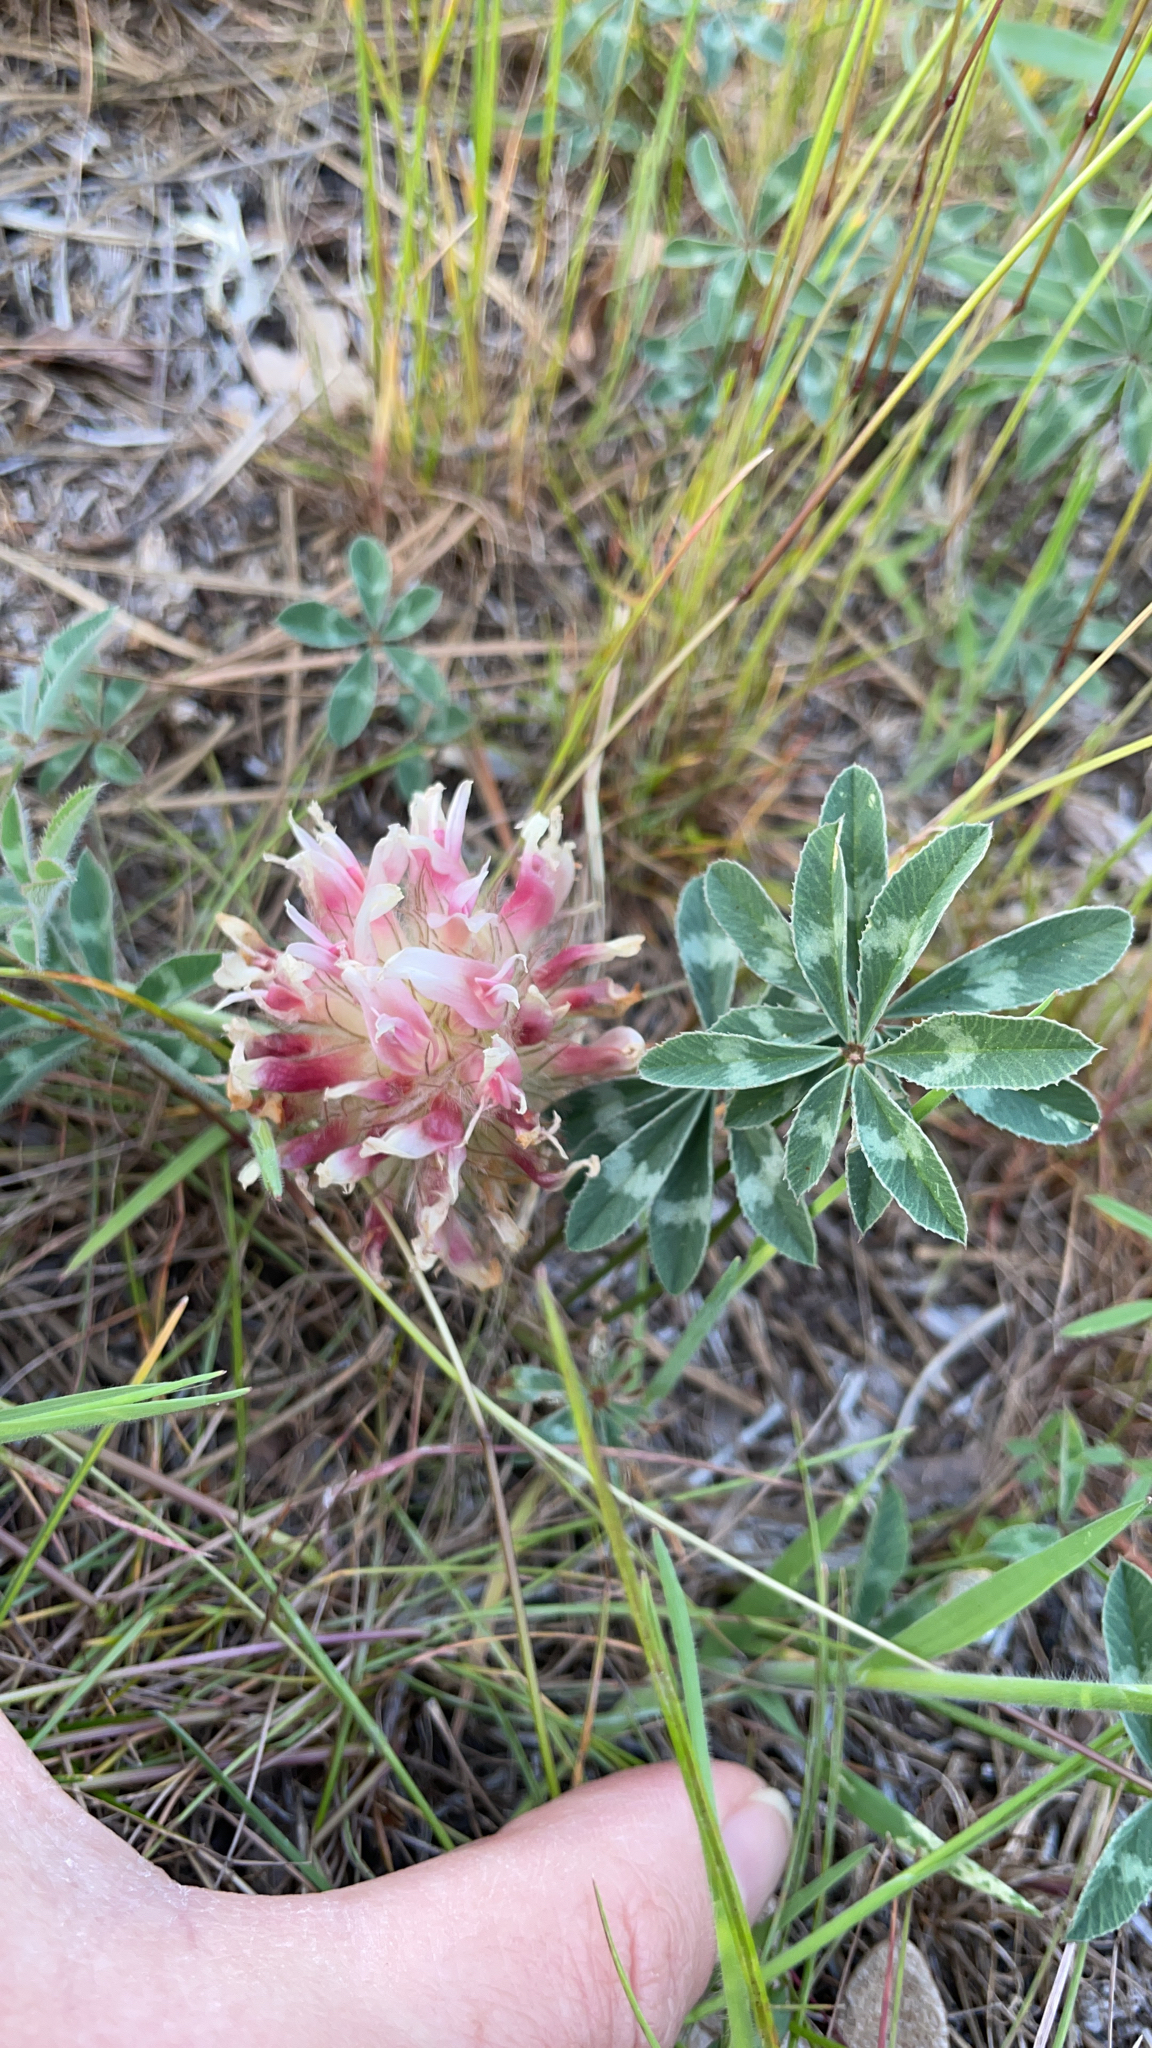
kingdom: Plantae
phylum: Tracheophyta
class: Magnoliopsida
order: Fabales
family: Fabaceae
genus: Trifolium
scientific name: Trifolium macrocephalum
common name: Large-head clover
